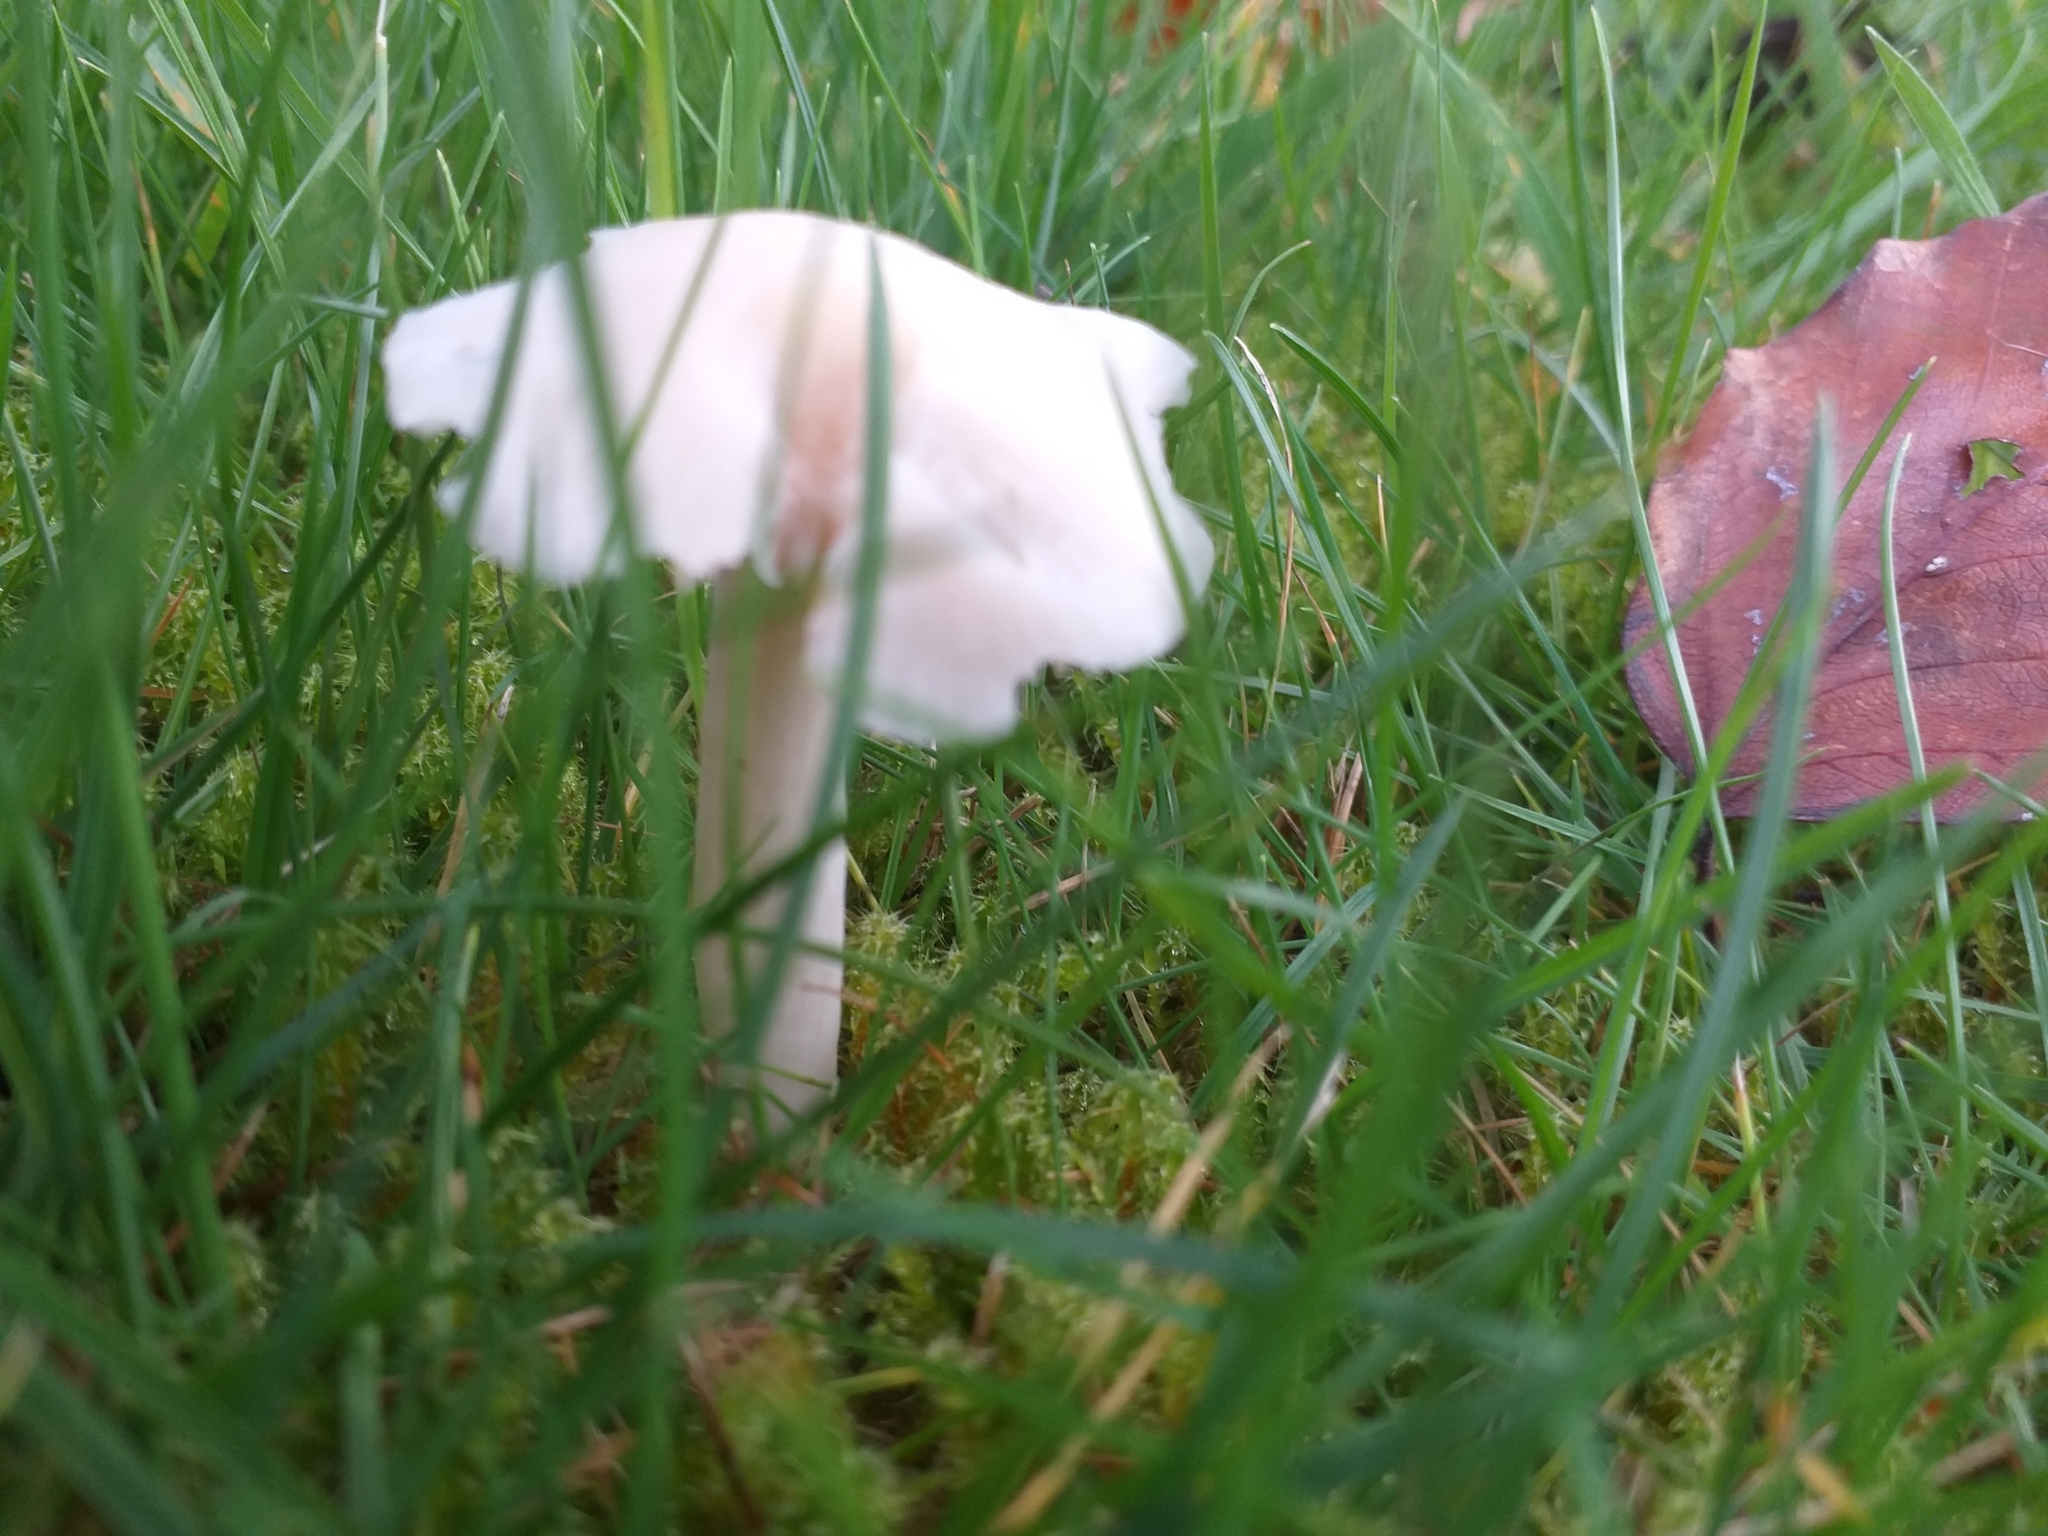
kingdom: Fungi
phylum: Basidiomycota
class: Agaricomycetes
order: Agaricales
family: Hygrophoraceae
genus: Cuphophyllus
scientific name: Cuphophyllus virgineus
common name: Snowy waxcap
